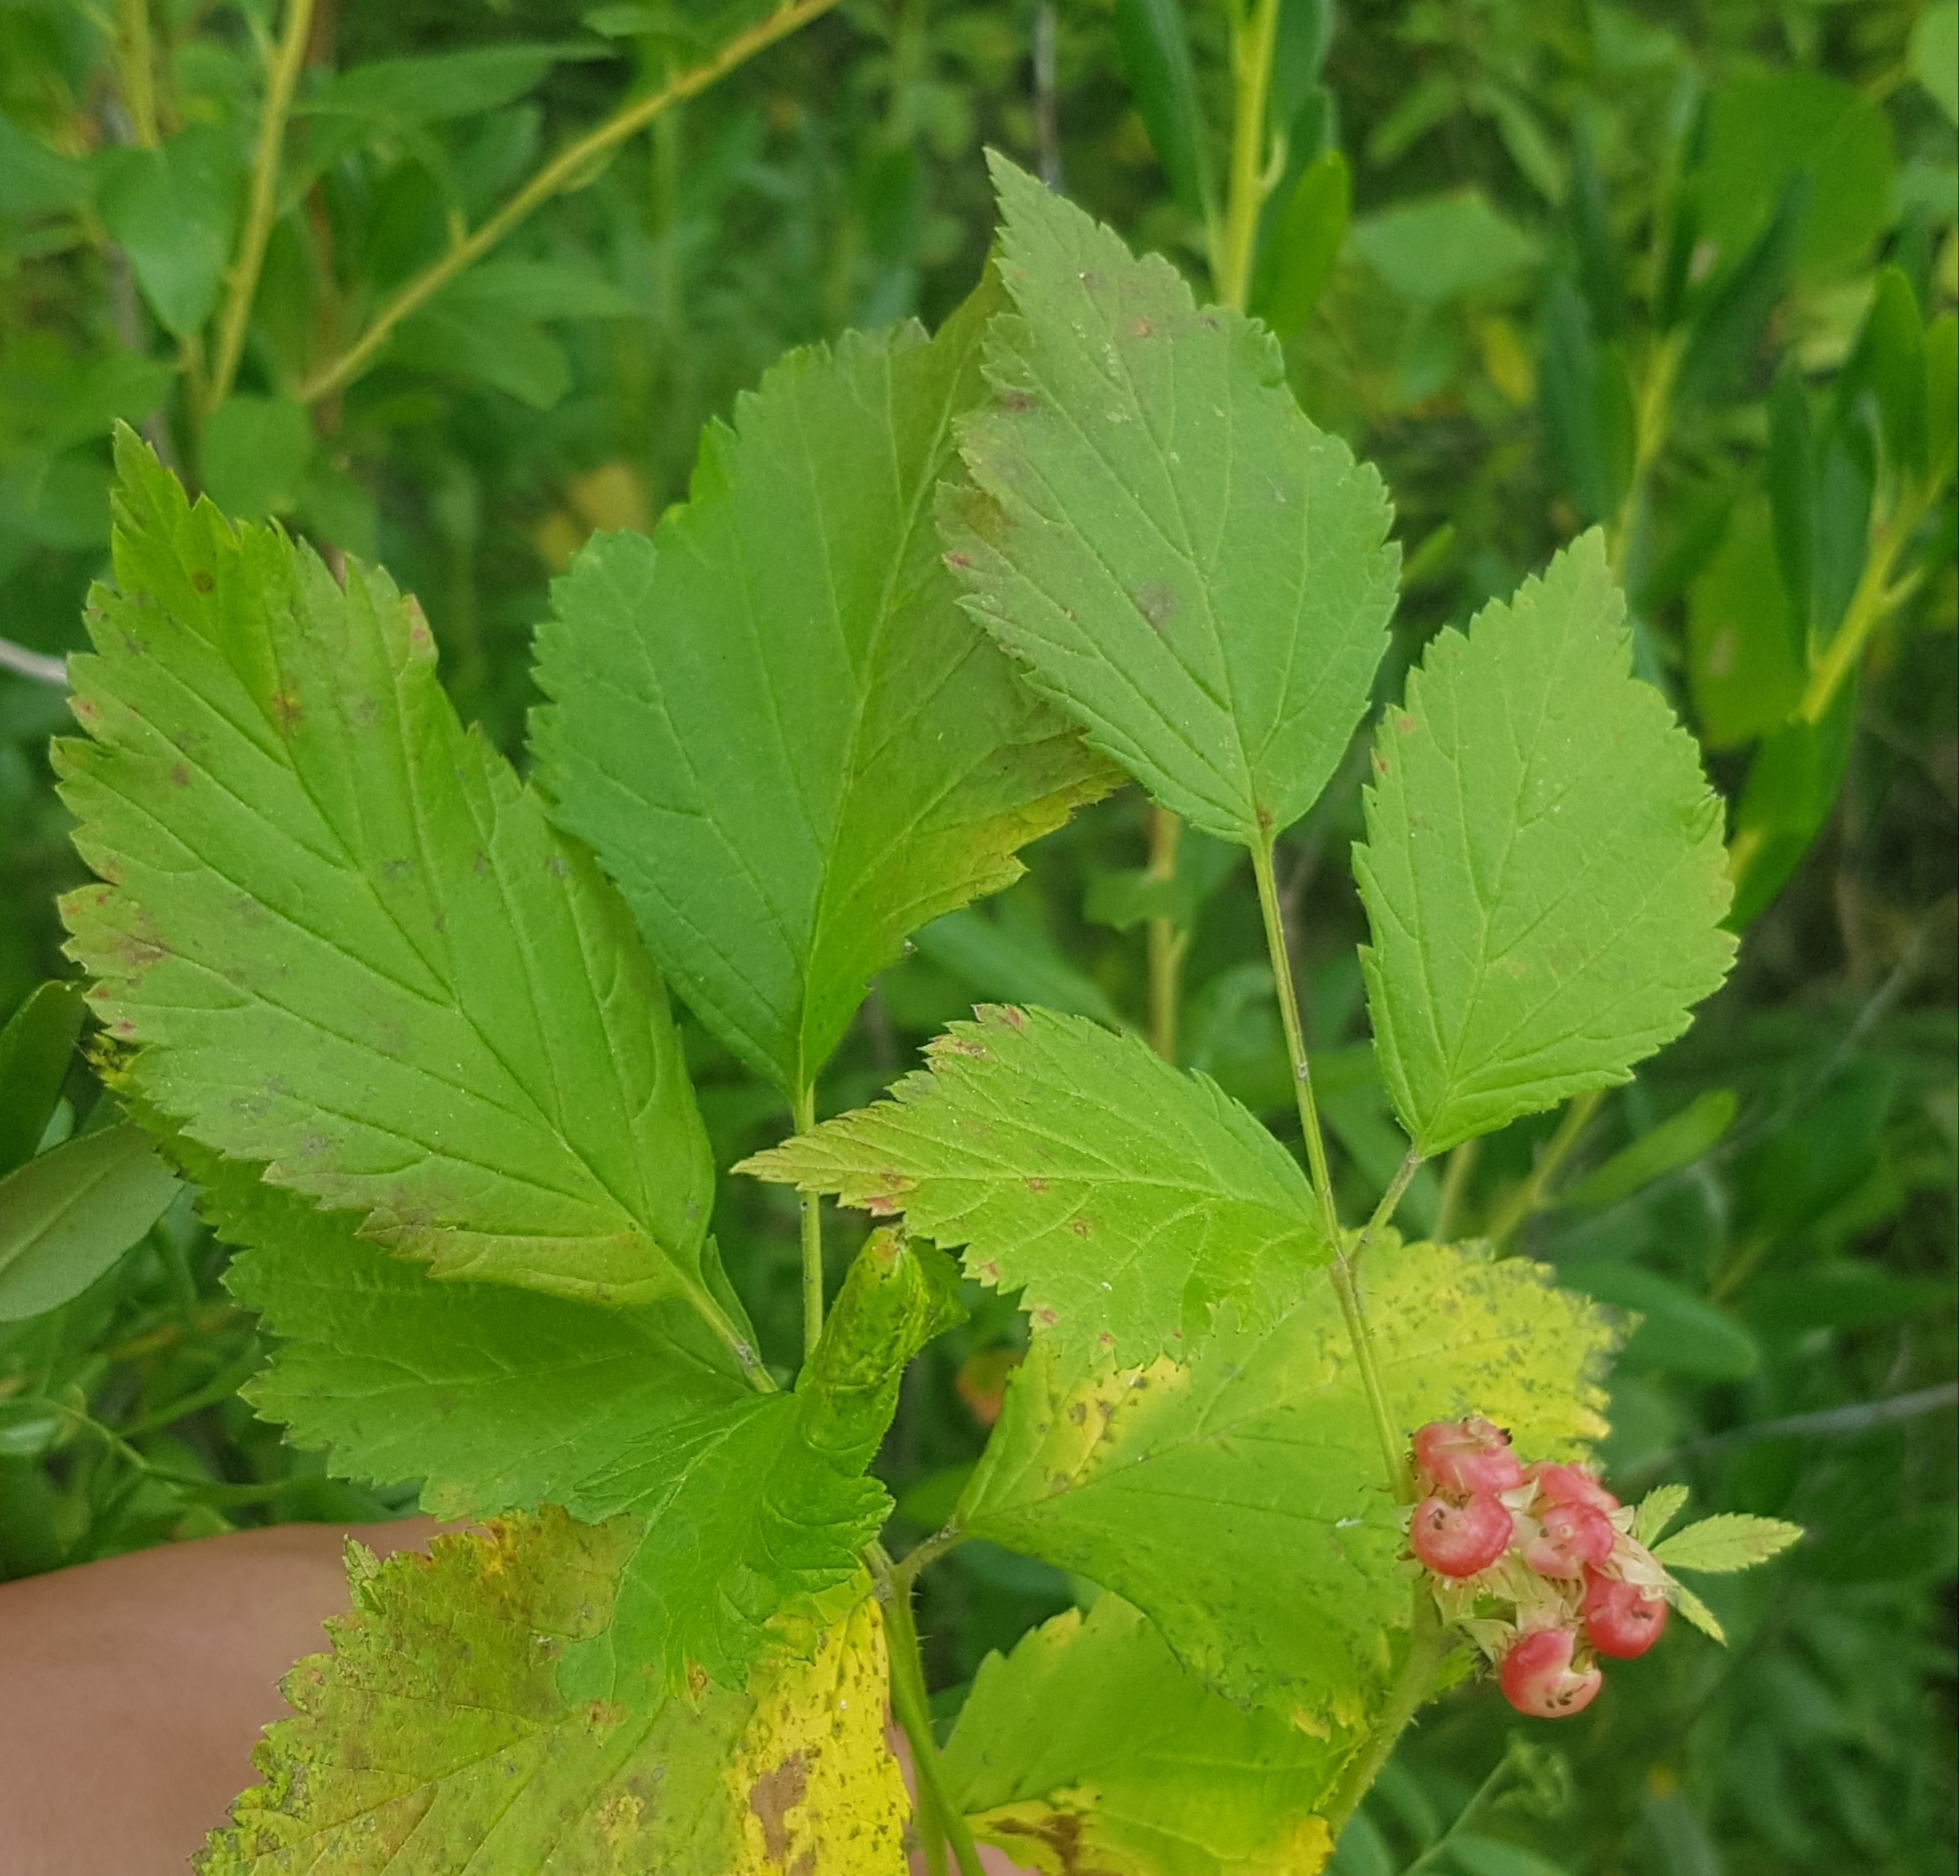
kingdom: Plantae
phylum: Tracheophyta
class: Magnoliopsida
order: Rosales
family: Rosaceae
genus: Rubus
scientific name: Rubus saxatilis
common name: Stone bramble
